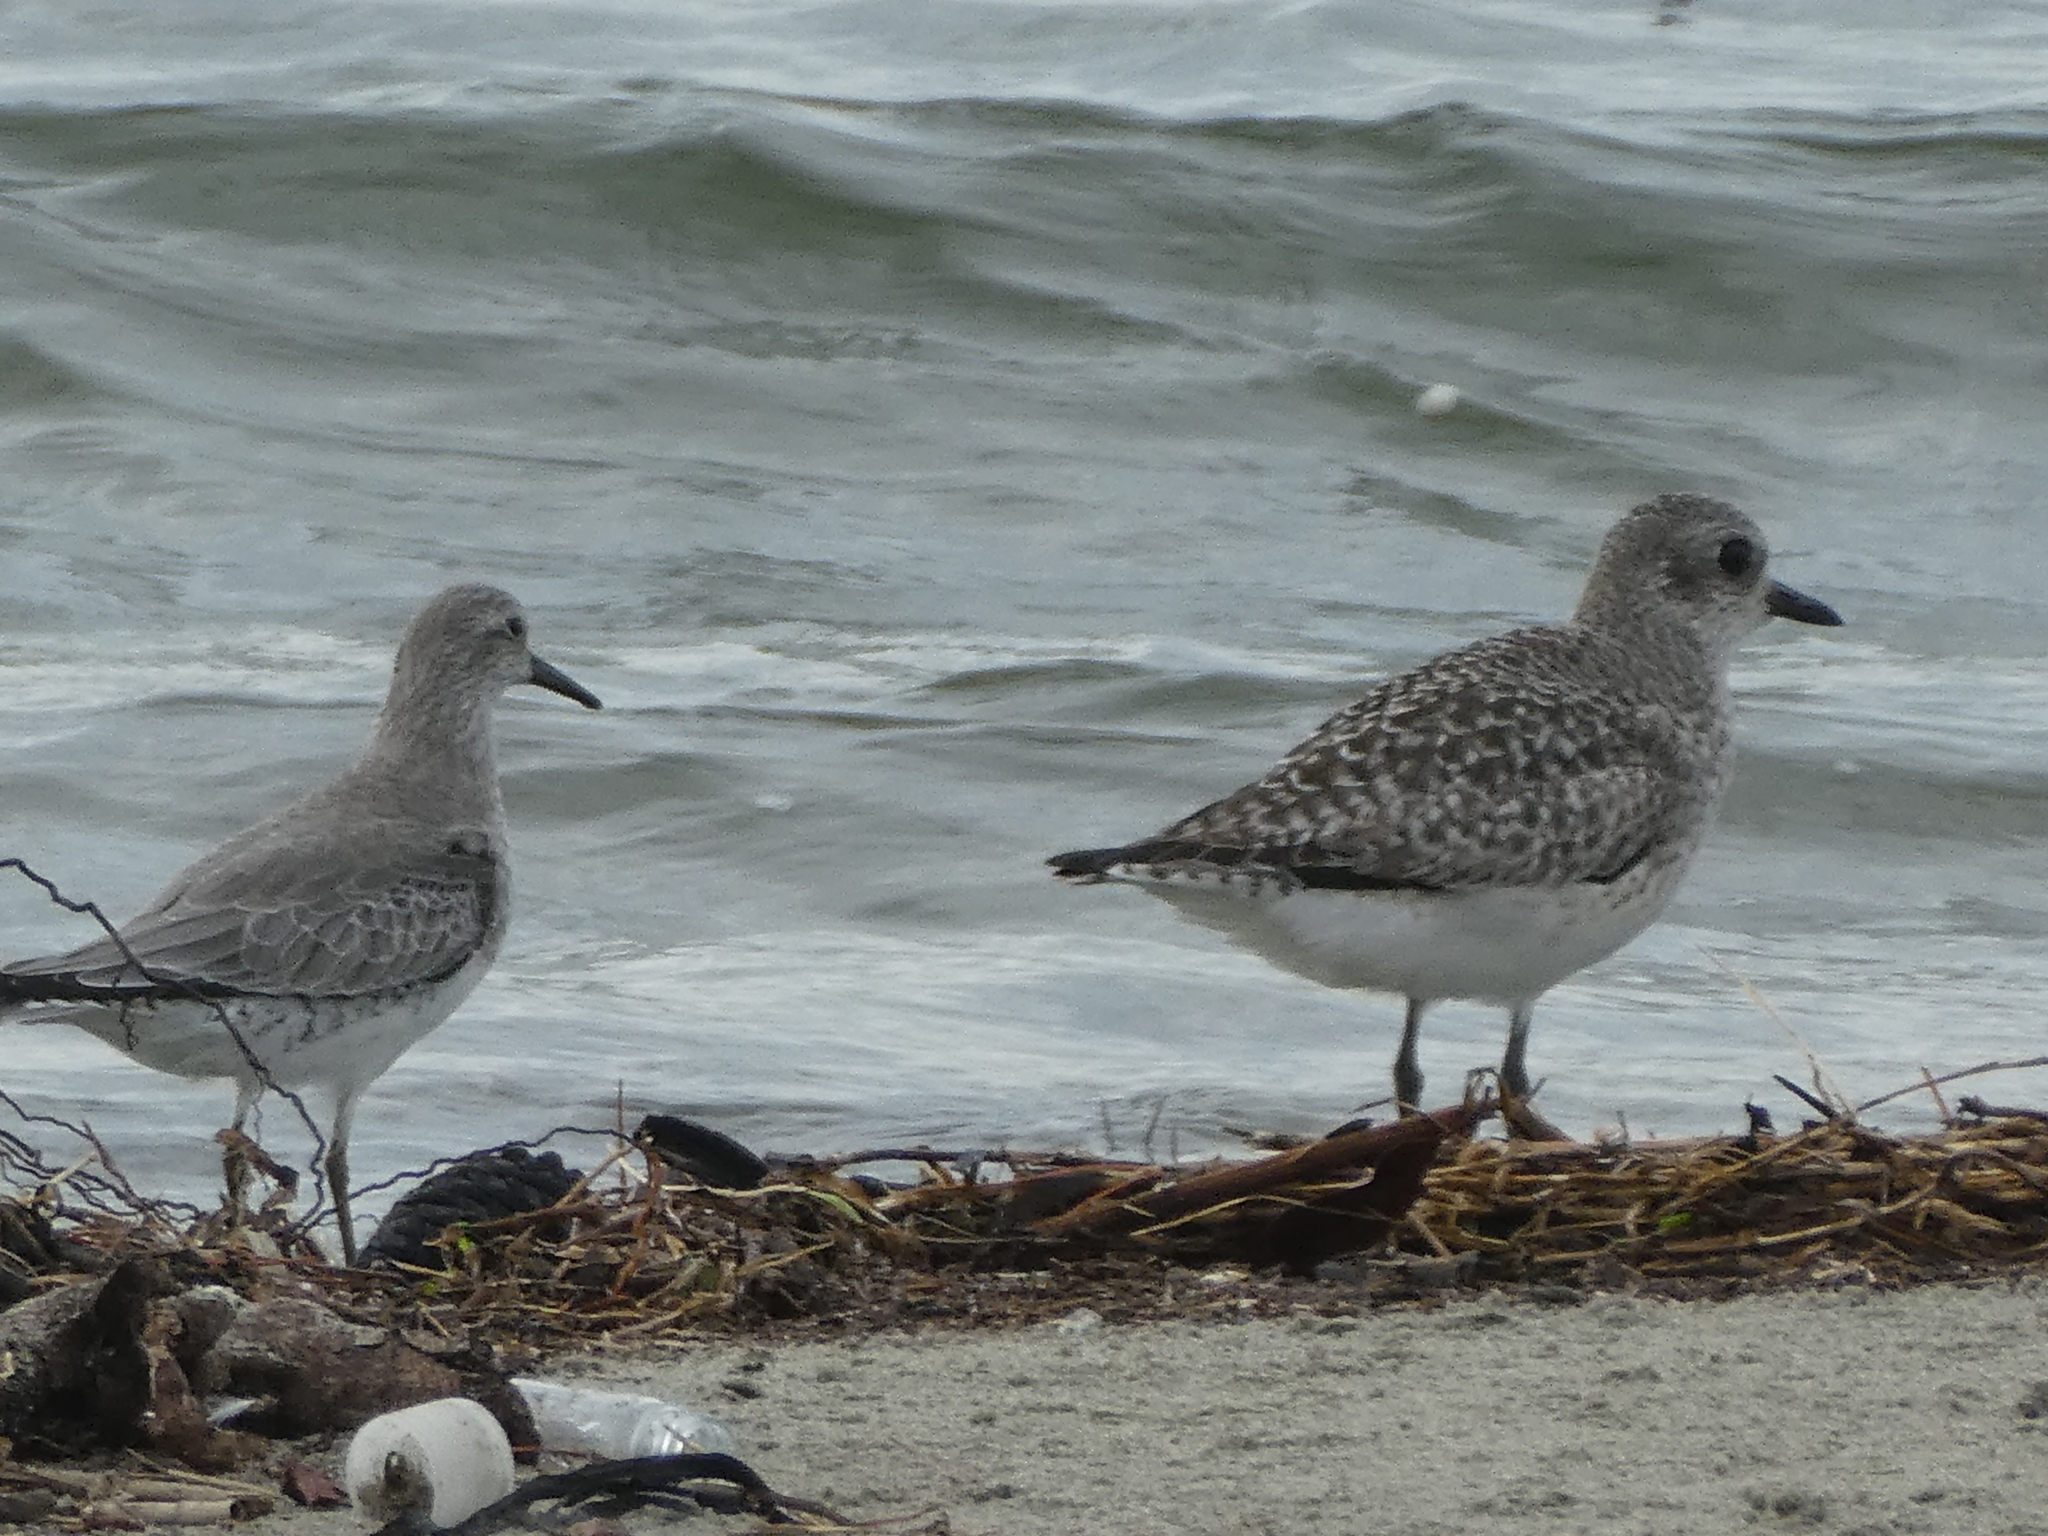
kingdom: Animalia
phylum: Chordata
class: Aves
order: Charadriiformes
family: Scolopacidae
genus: Calidris
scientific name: Calidris canutus
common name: Red knot
